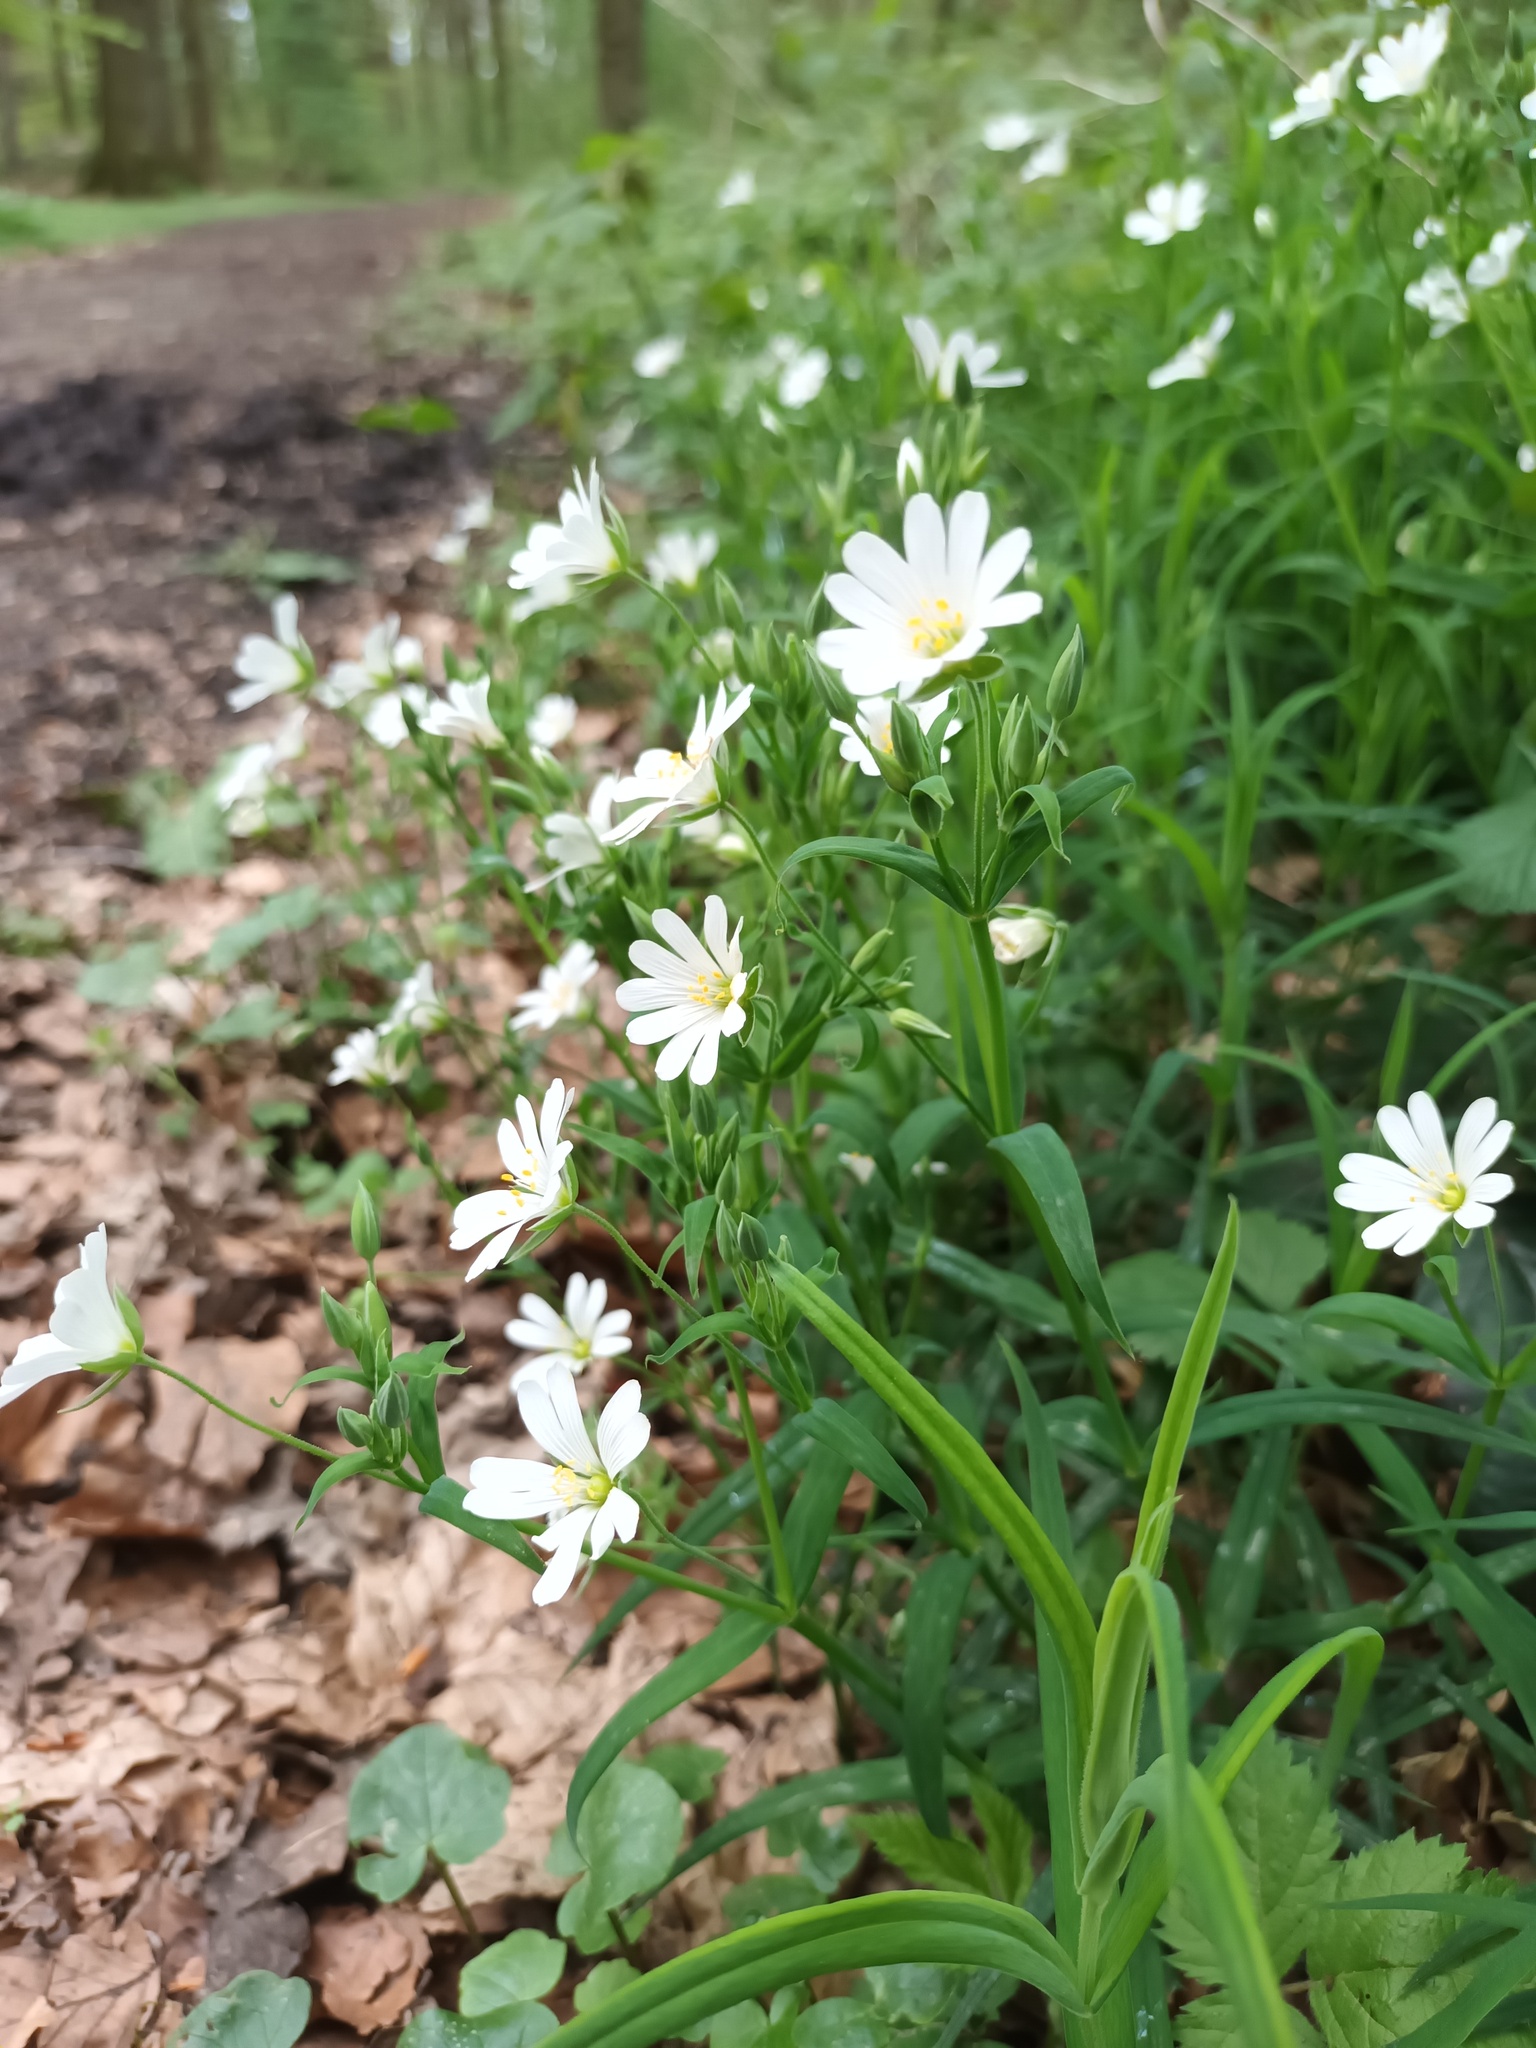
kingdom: Plantae
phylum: Tracheophyta
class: Magnoliopsida
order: Caryophyllales
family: Caryophyllaceae
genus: Rabelera
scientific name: Rabelera holostea
